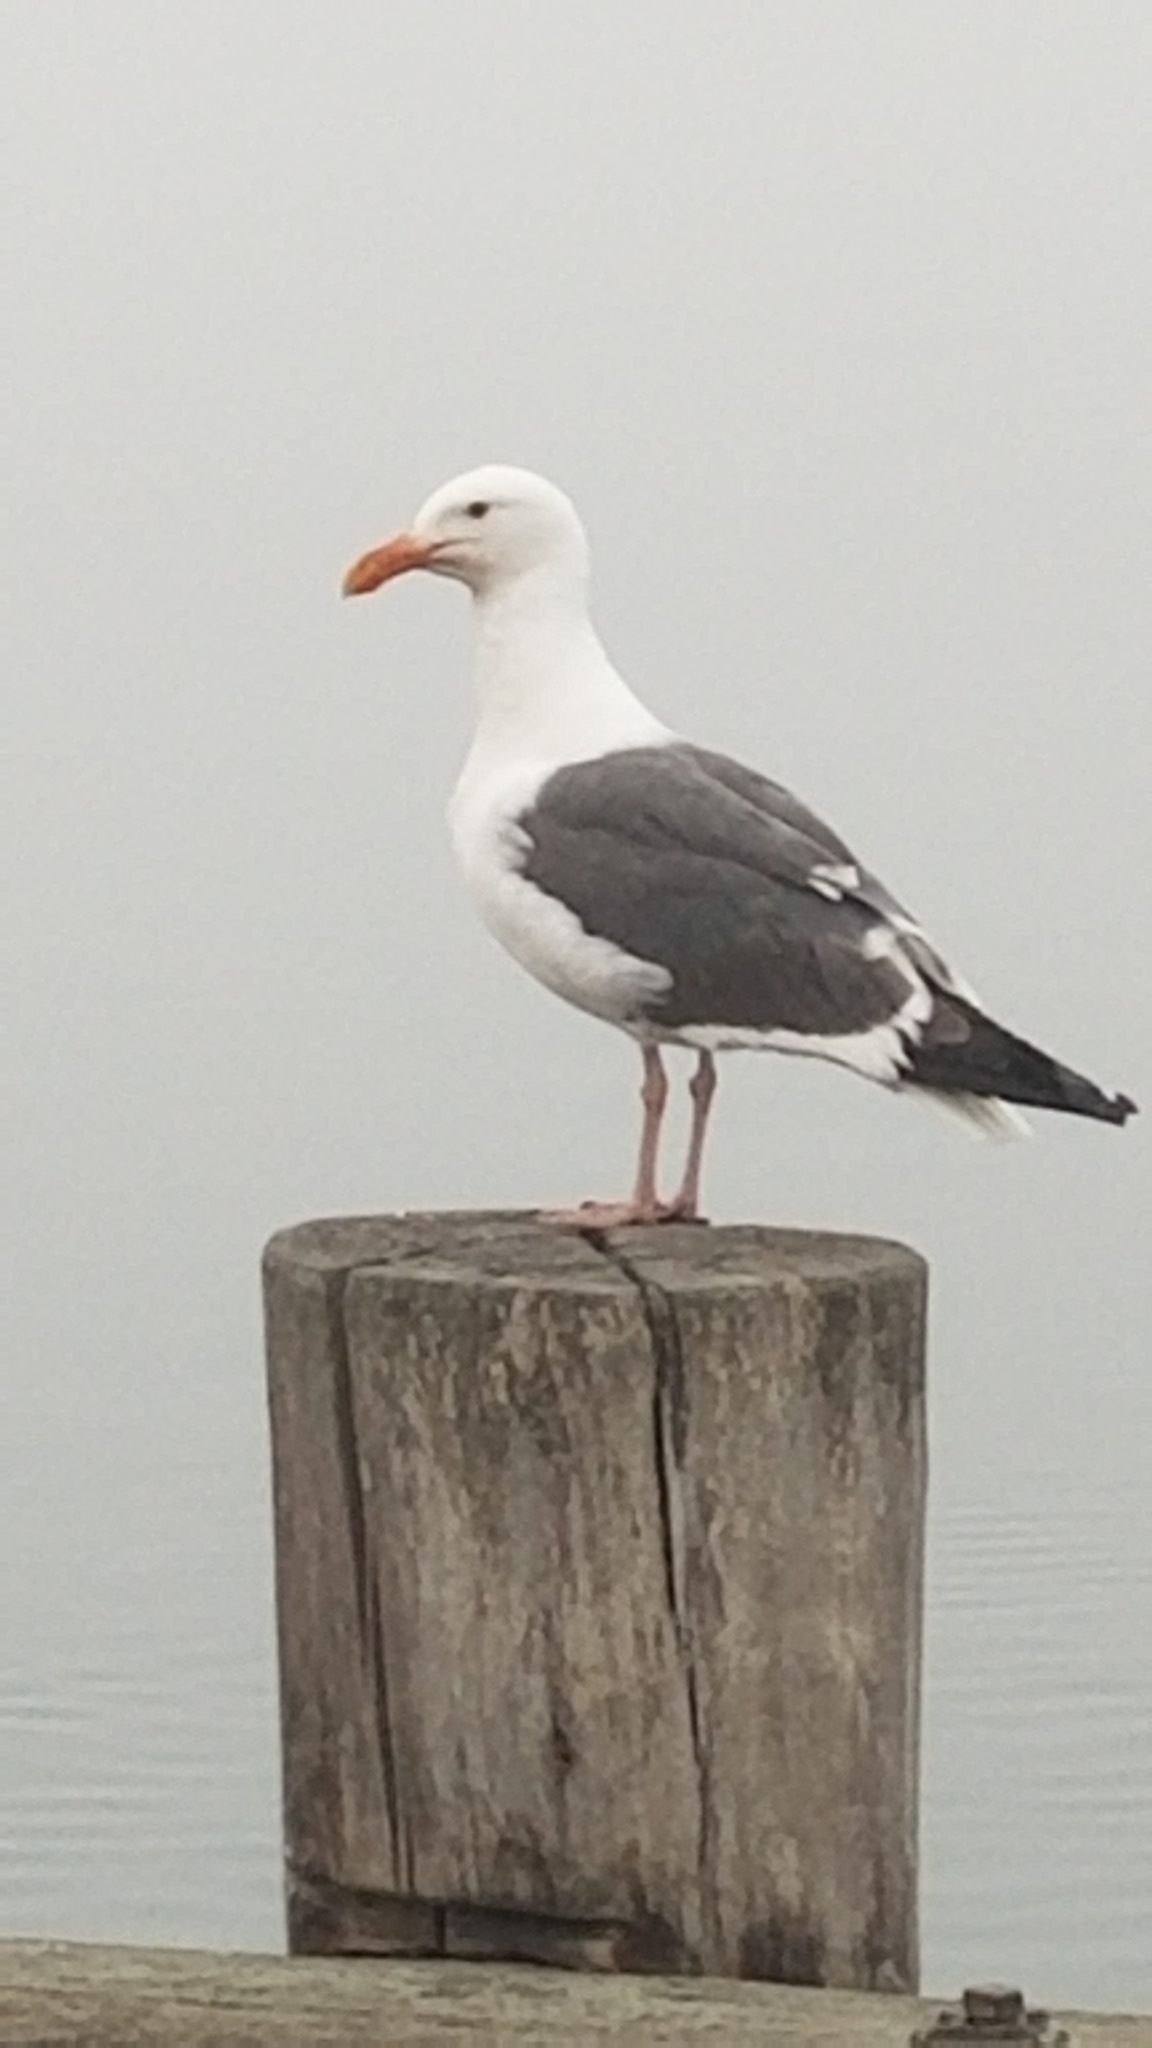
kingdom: Animalia
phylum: Chordata
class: Aves
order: Charadriiformes
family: Laridae
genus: Larus
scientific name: Larus occidentalis
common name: Western gull
